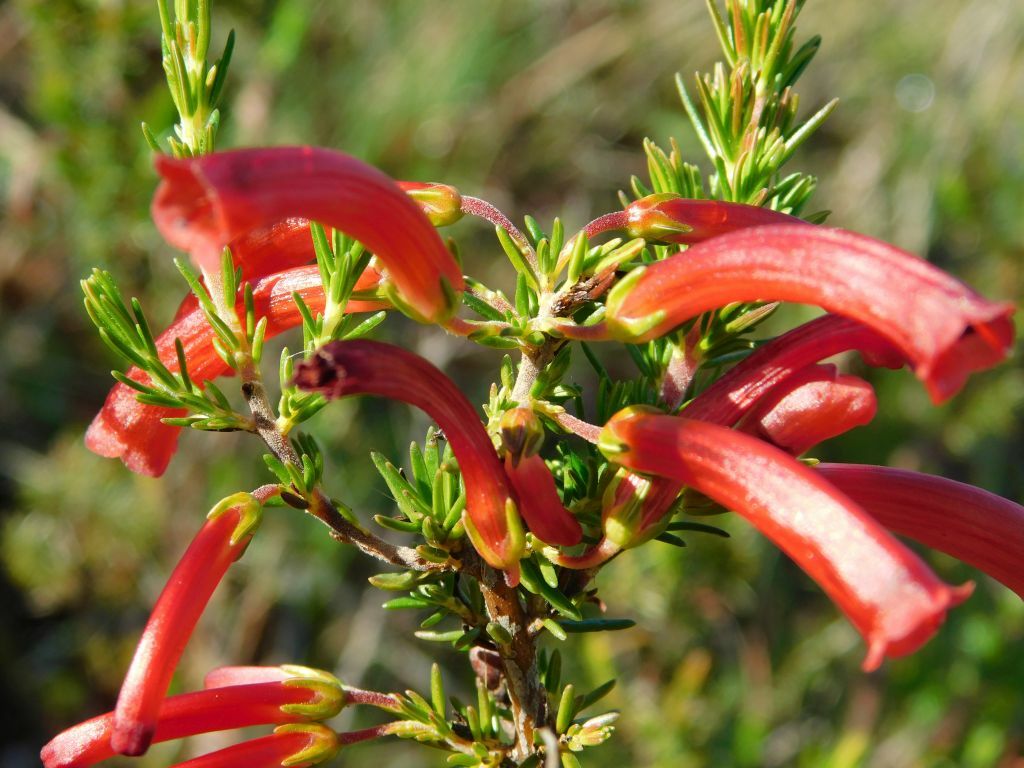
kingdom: Plantae
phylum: Tracheophyta
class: Magnoliopsida
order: Ericales
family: Ericaceae
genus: Erica
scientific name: Erica cruenta
